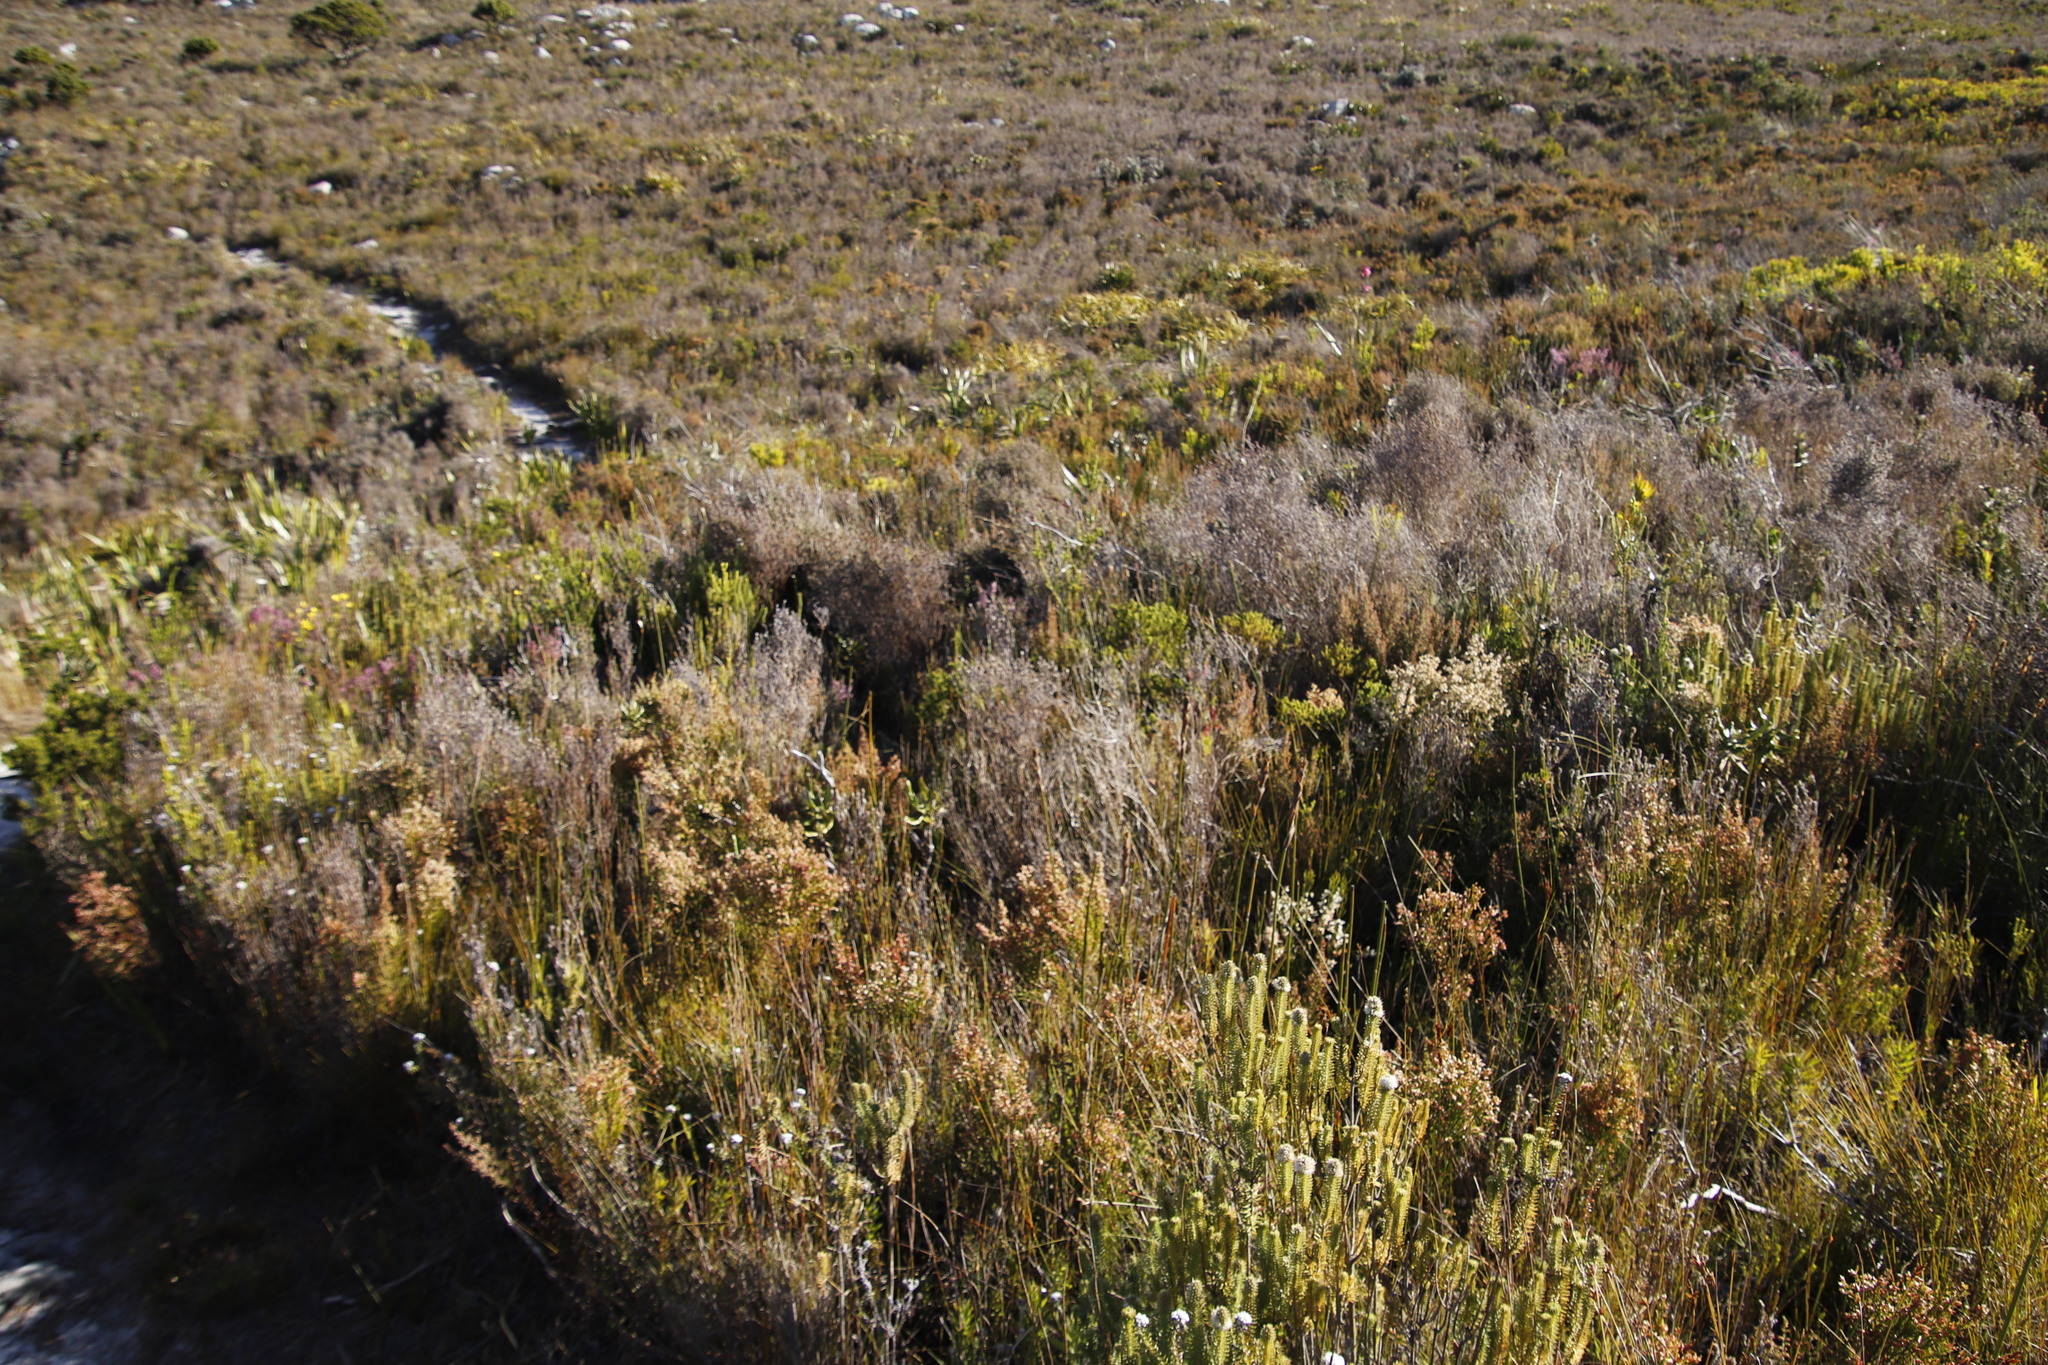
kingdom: Plantae
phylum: Tracheophyta
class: Liliopsida
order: Poales
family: Poaceae
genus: Pseudopentameris
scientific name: Pseudopentameris macrantha
